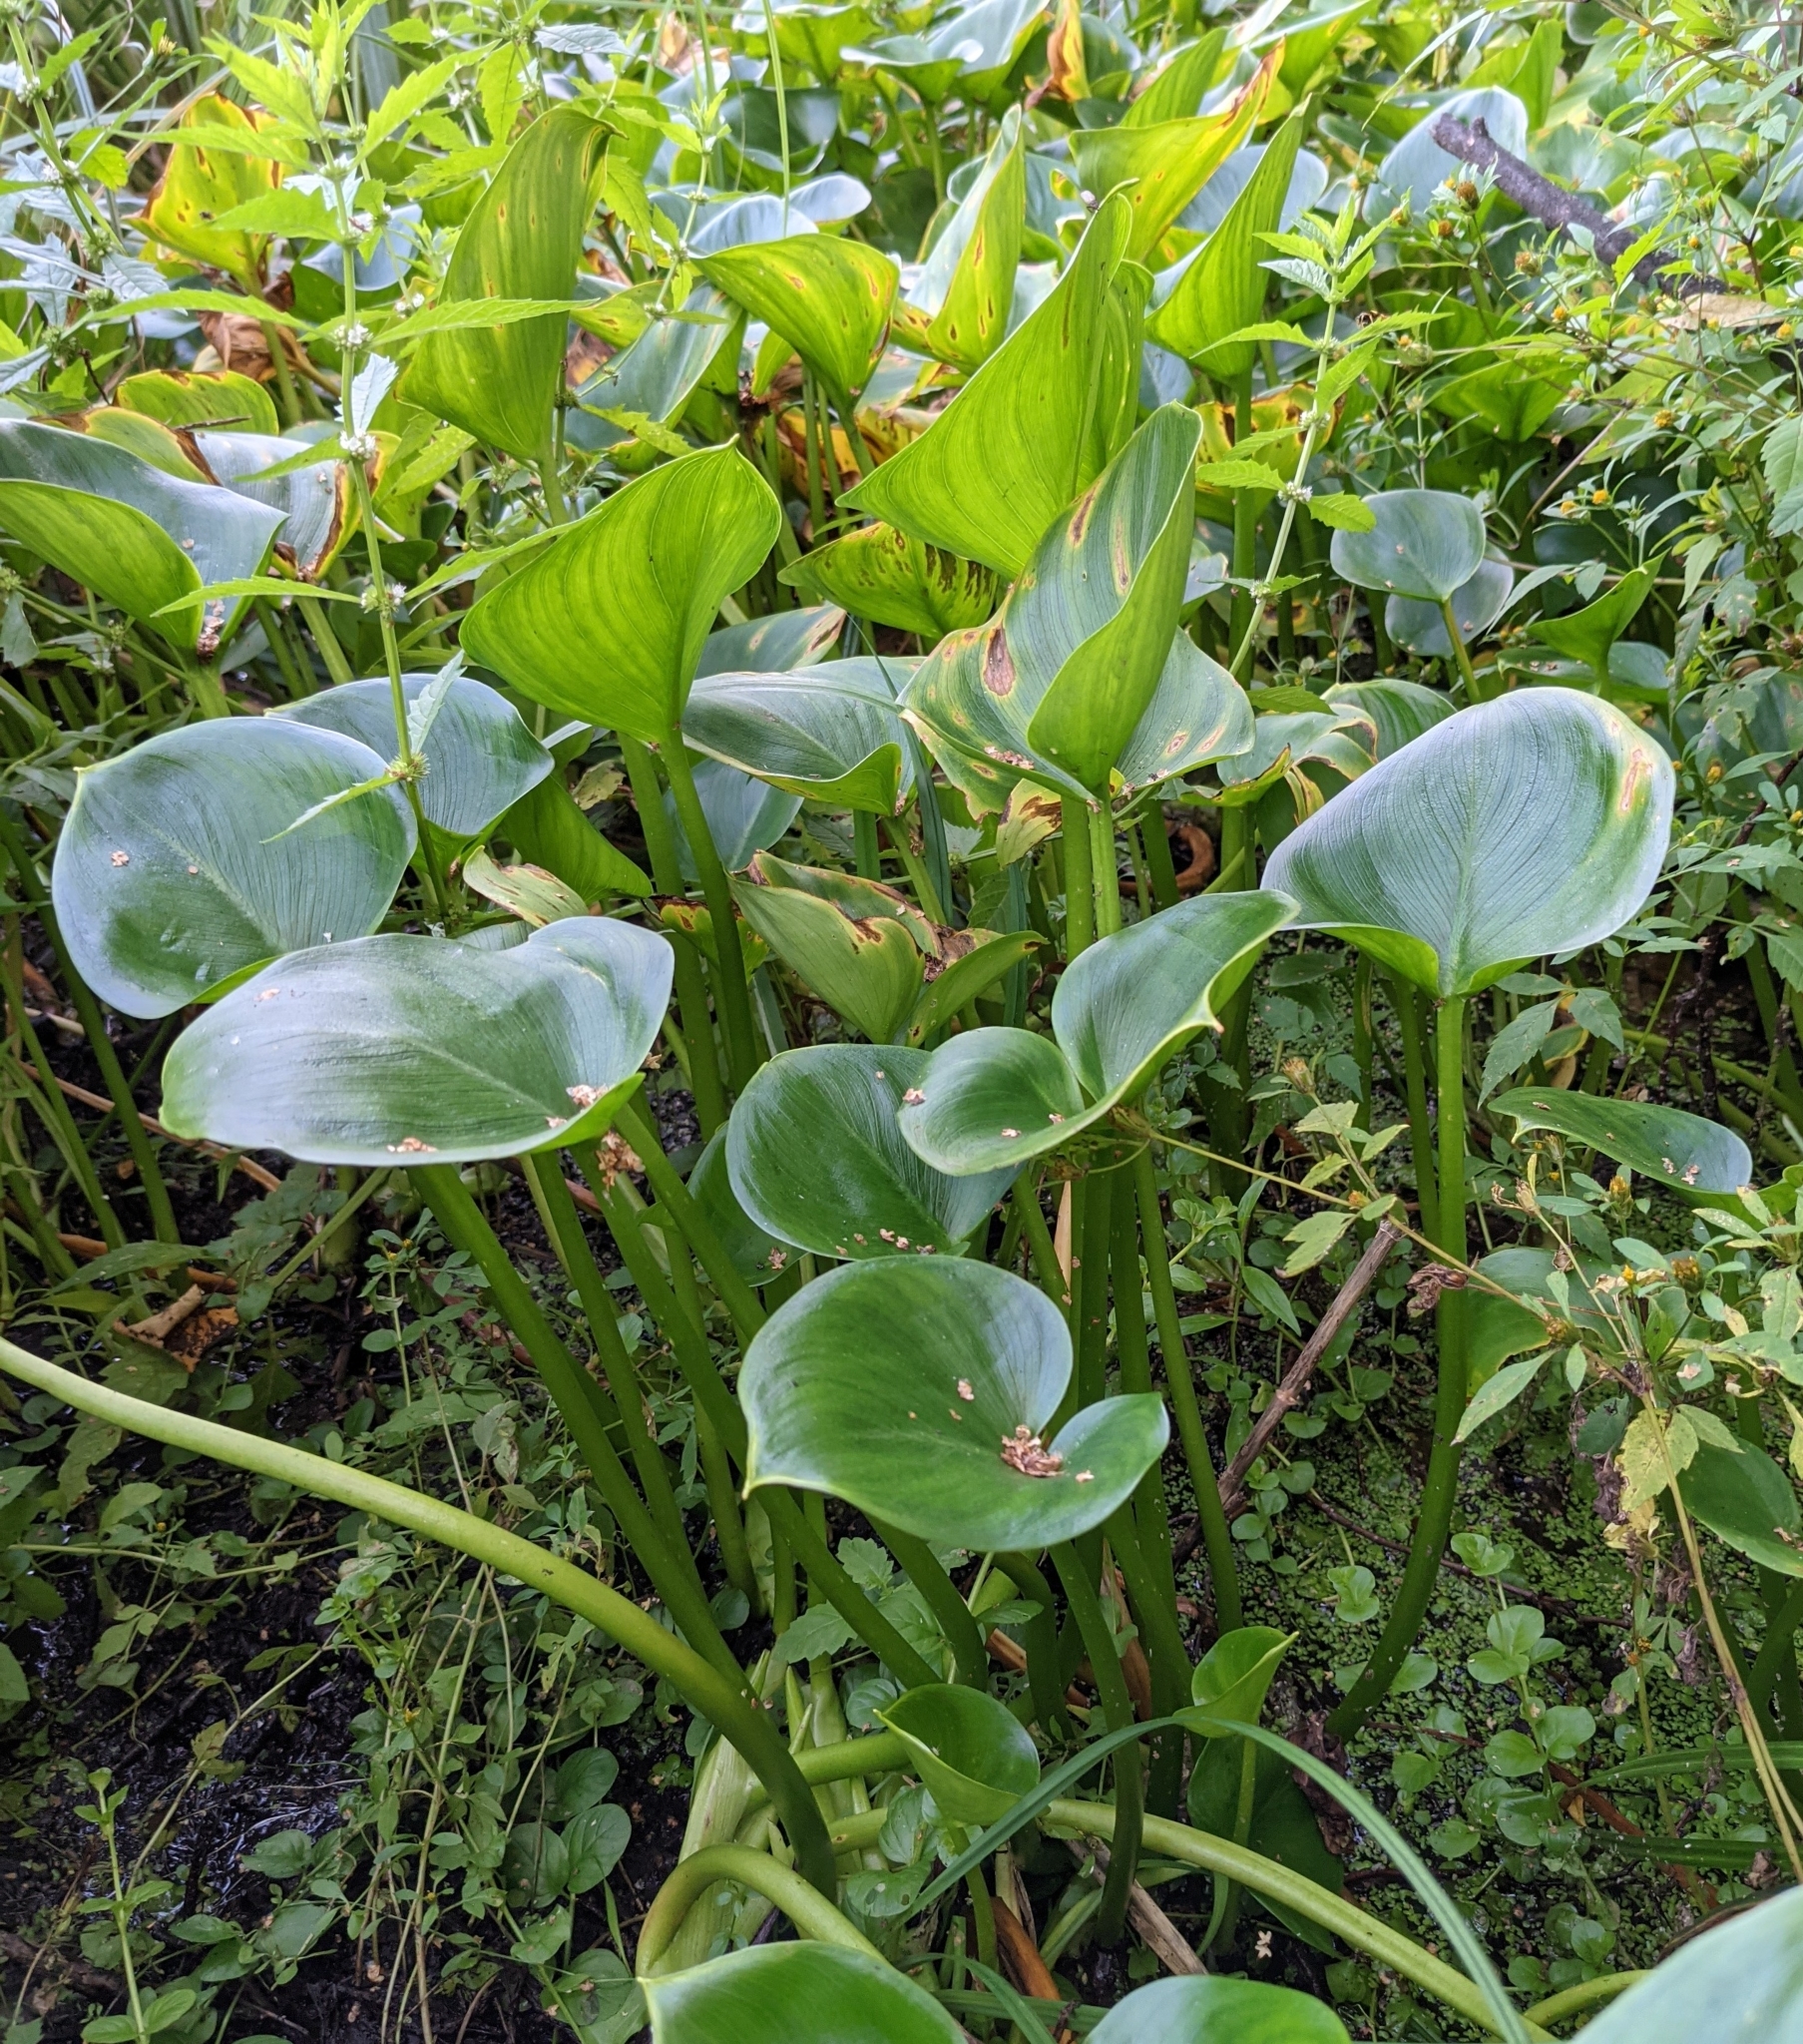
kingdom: Plantae
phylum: Tracheophyta
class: Liliopsida
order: Alismatales
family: Araceae
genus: Calla
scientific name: Calla palustris
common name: Bog arum
